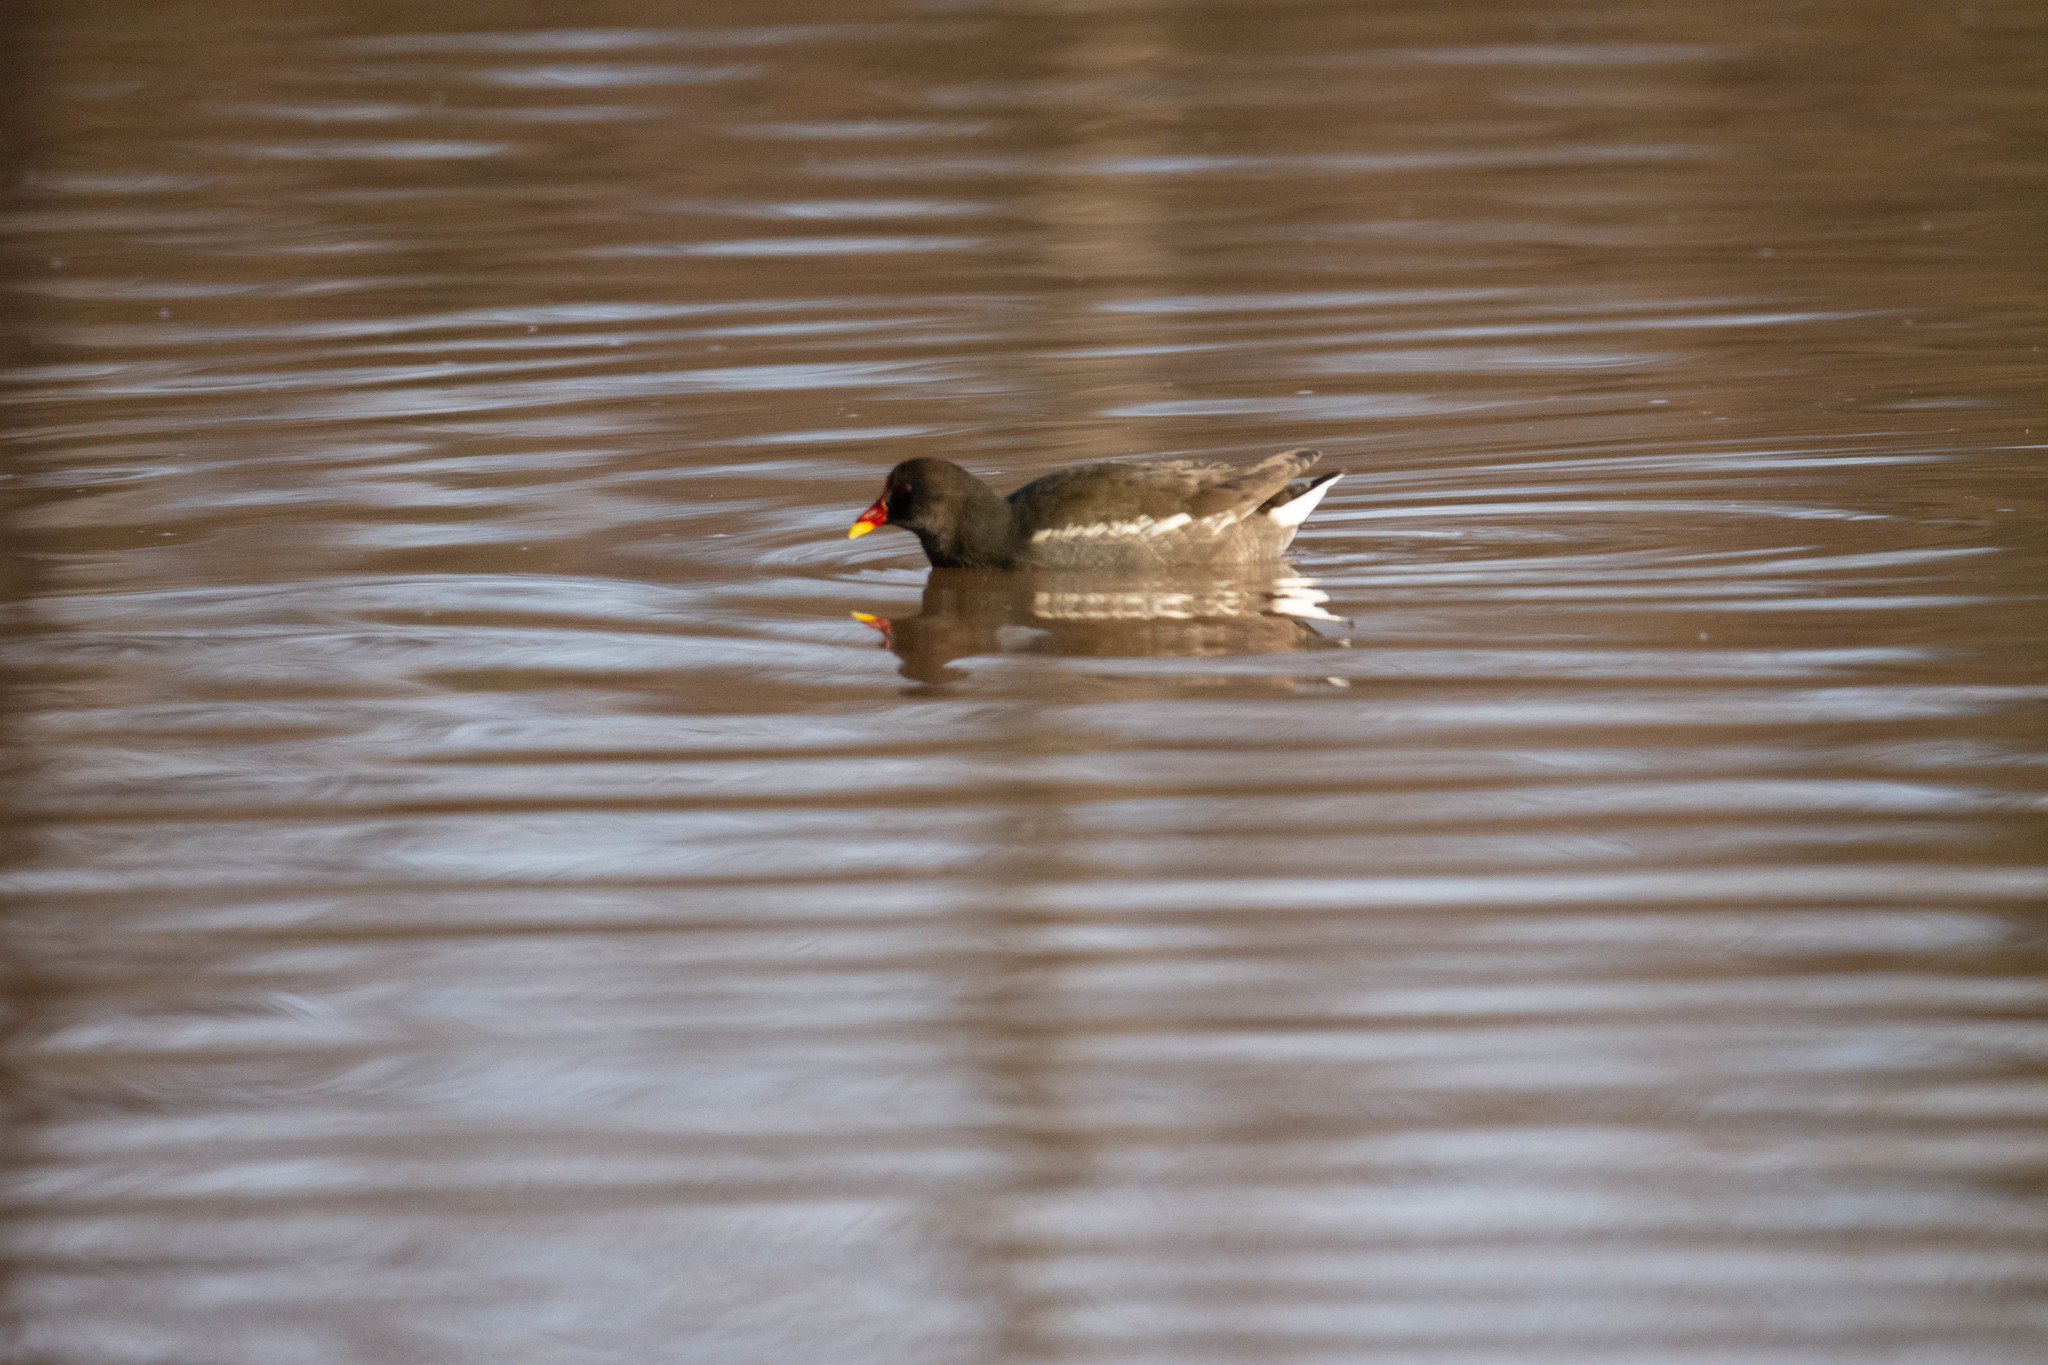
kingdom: Animalia
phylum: Chordata
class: Aves
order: Gruiformes
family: Rallidae
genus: Gallinula
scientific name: Gallinula chloropus
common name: Common moorhen
